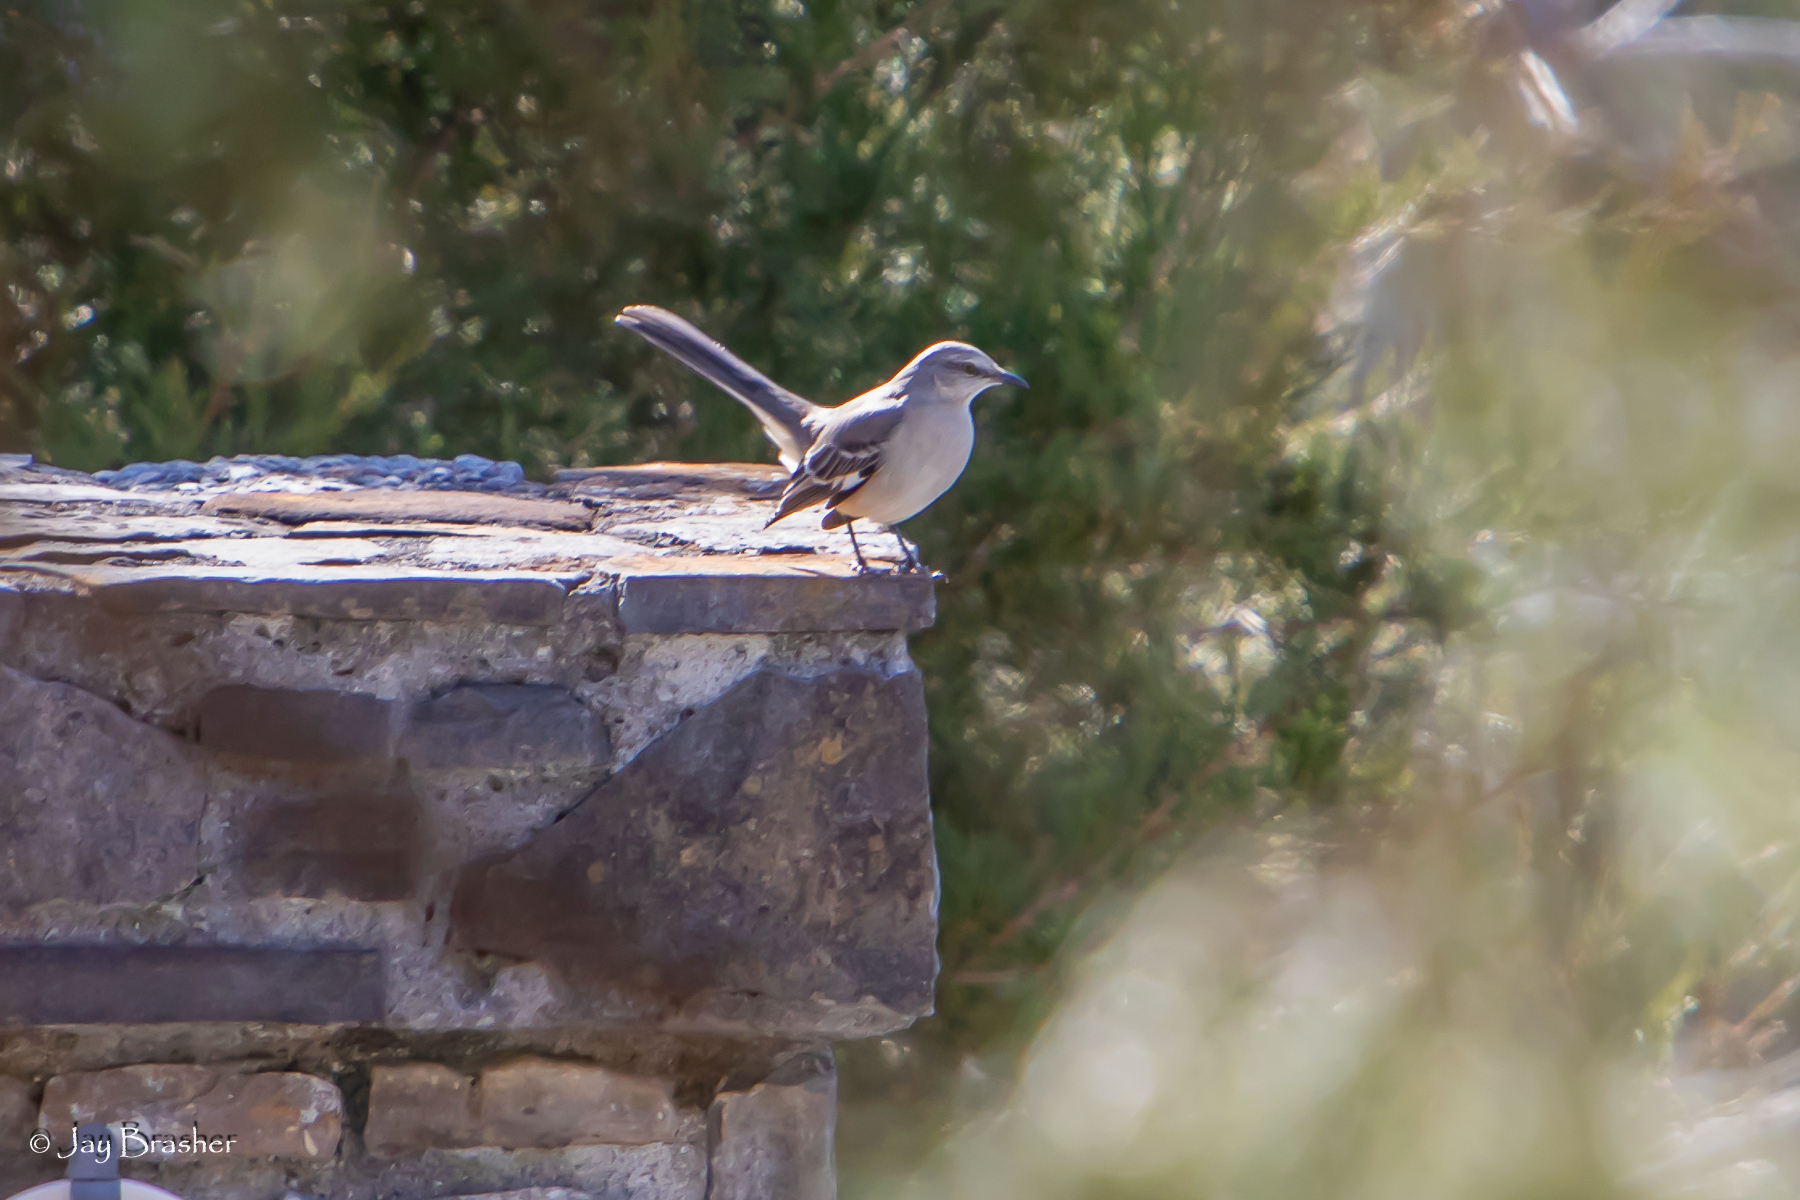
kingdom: Animalia
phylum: Chordata
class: Aves
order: Passeriformes
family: Mimidae
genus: Mimus
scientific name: Mimus polyglottos
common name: Northern mockingbird
